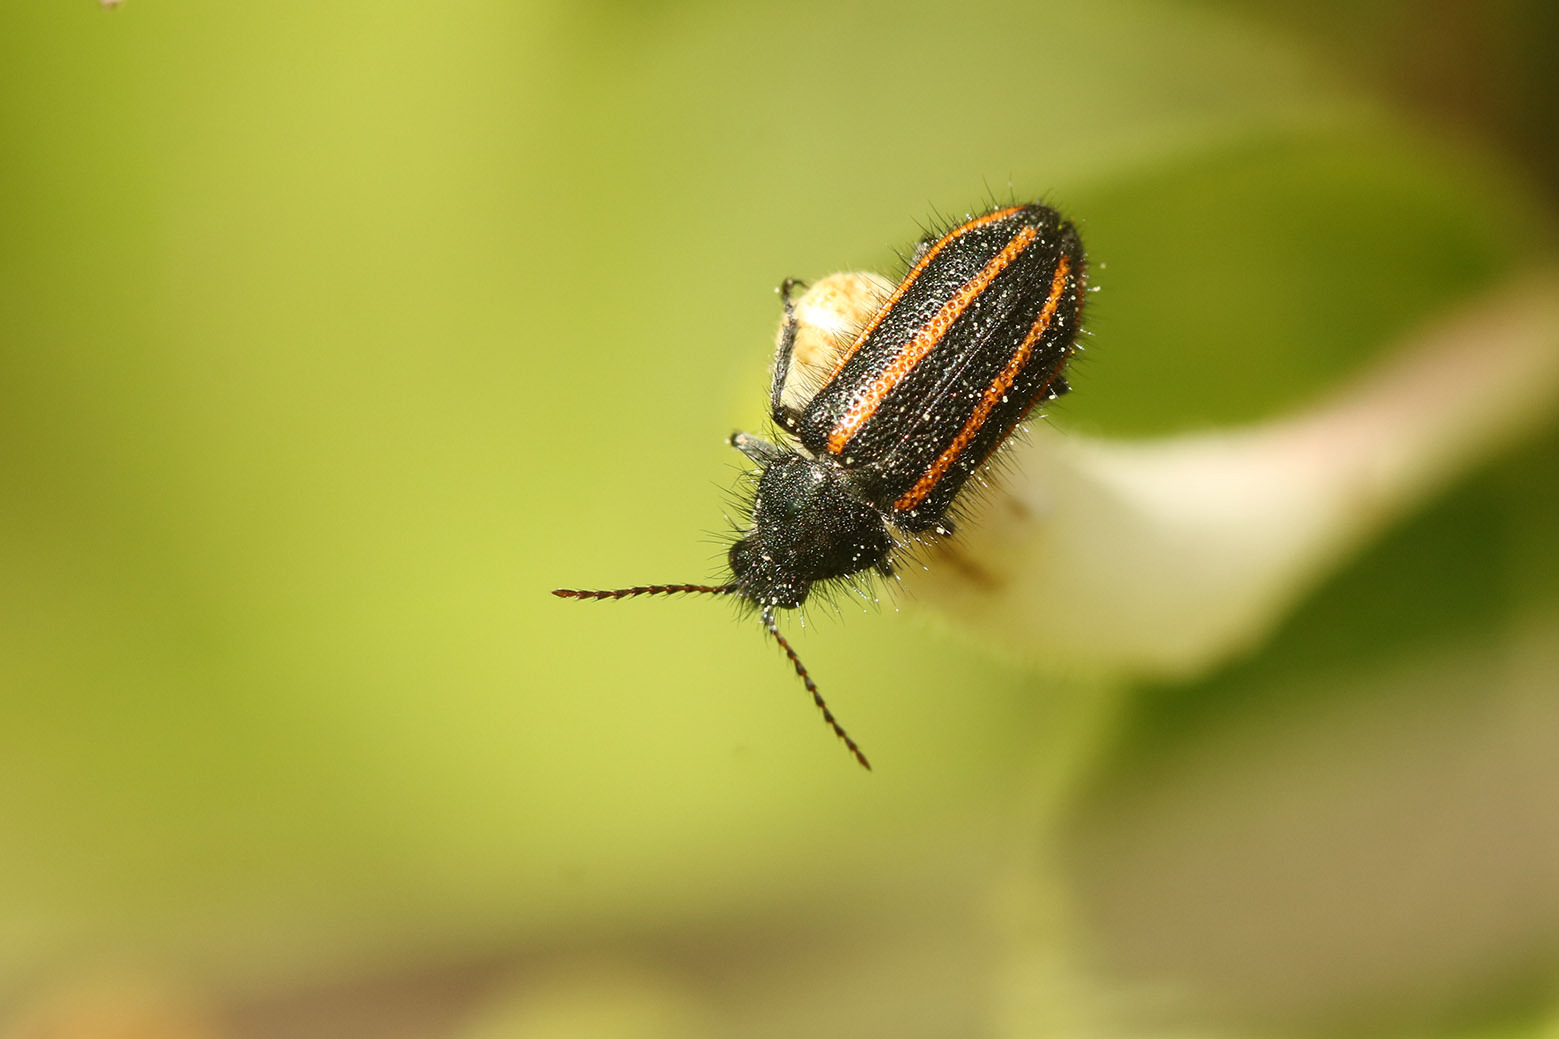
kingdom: Animalia
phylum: Arthropoda
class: Insecta
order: Coleoptera
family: Melyridae
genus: Astylus
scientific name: Astylus
